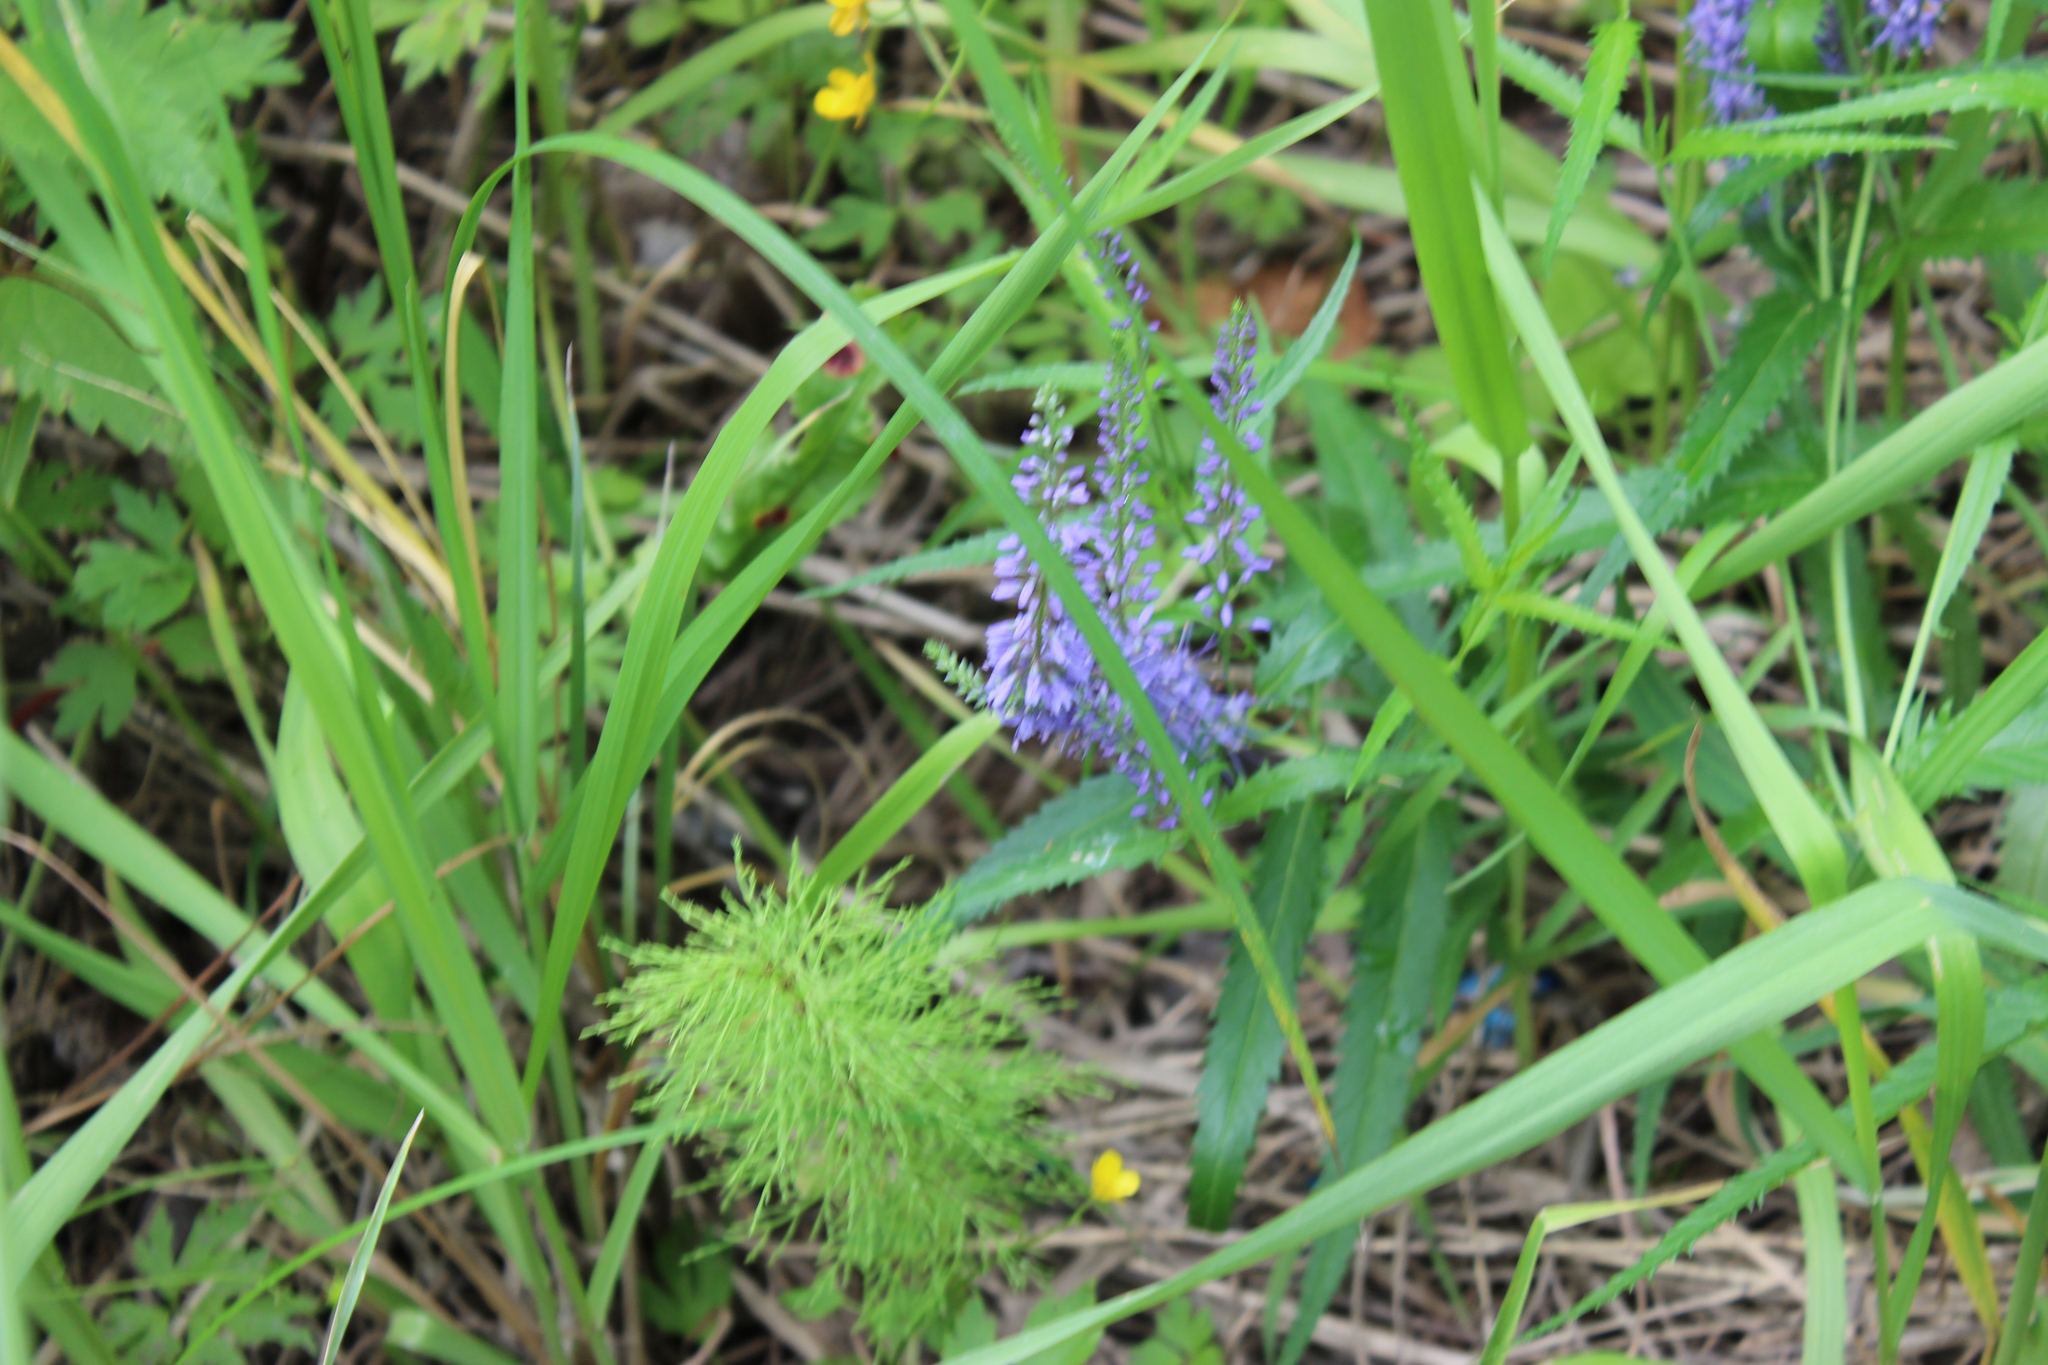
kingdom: Plantae
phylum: Tracheophyta
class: Magnoliopsida
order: Lamiales
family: Plantaginaceae
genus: Veronica
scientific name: Veronica longifolia
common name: Garden speedwell
